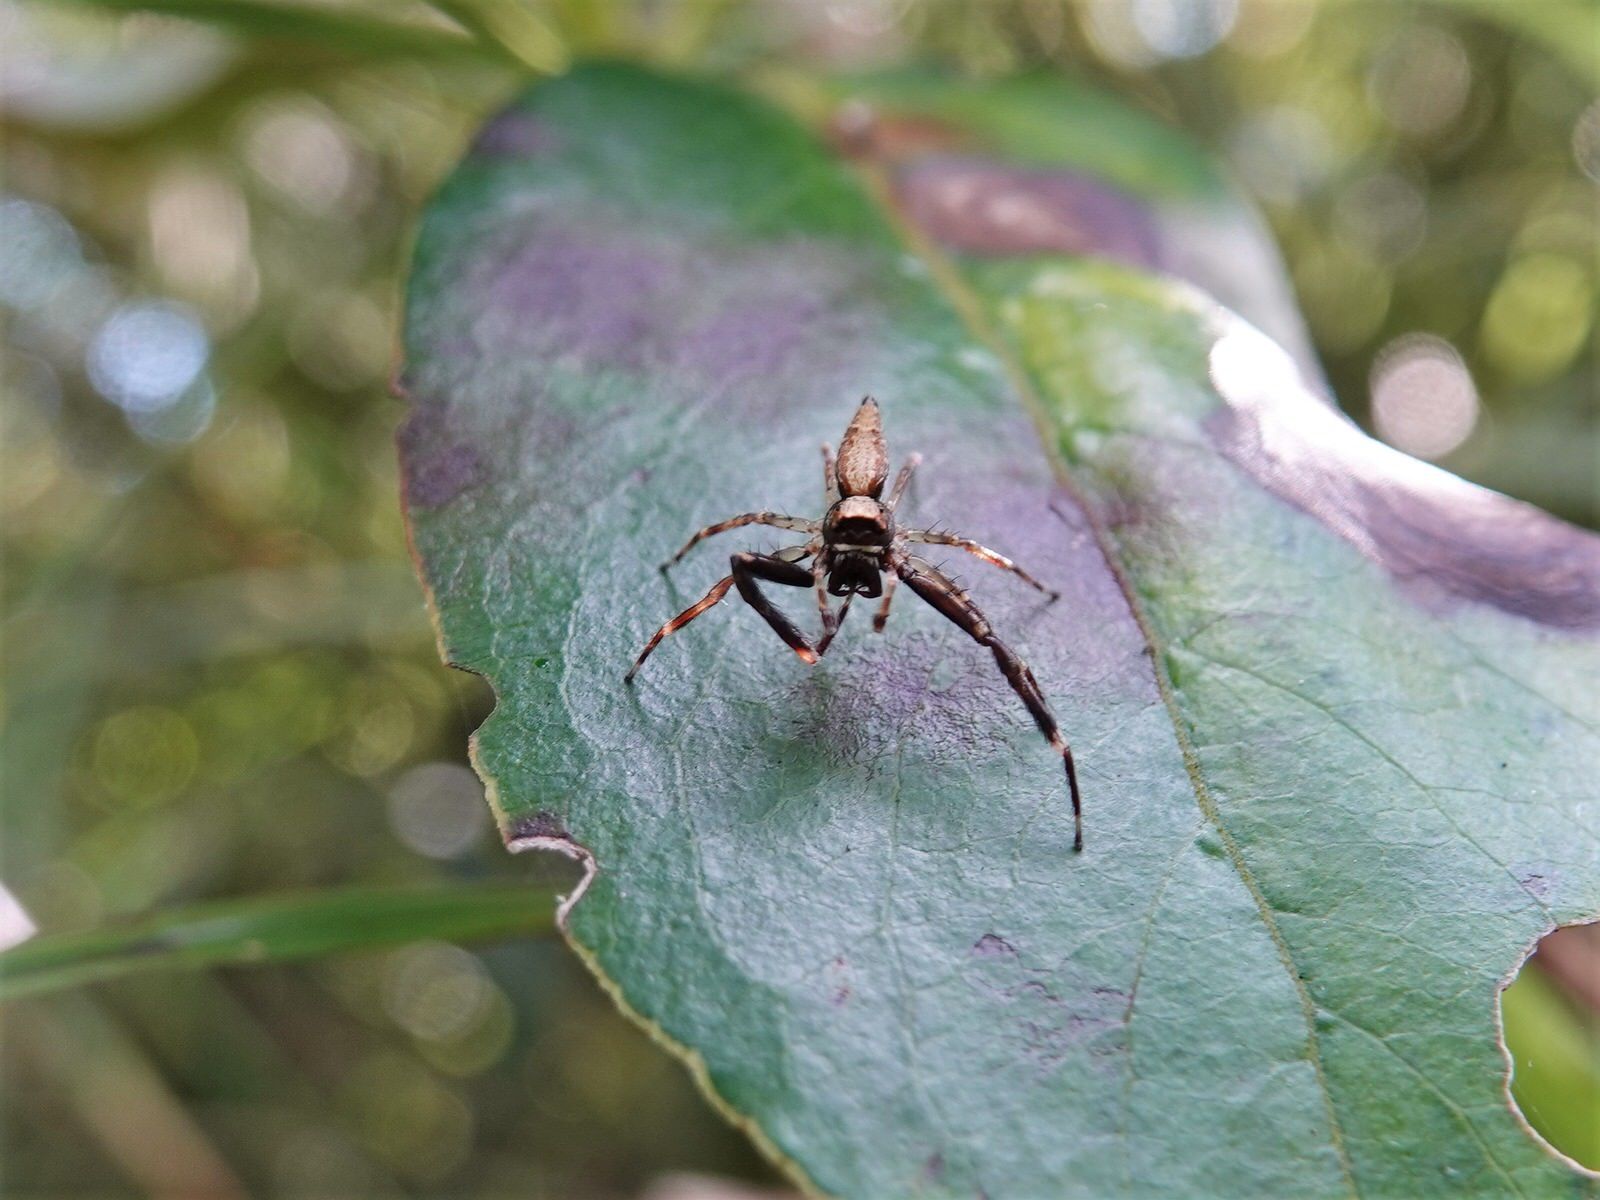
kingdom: Animalia
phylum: Arthropoda
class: Arachnida
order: Araneae
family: Salticidae
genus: Helpis
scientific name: Helpis minitabunda
